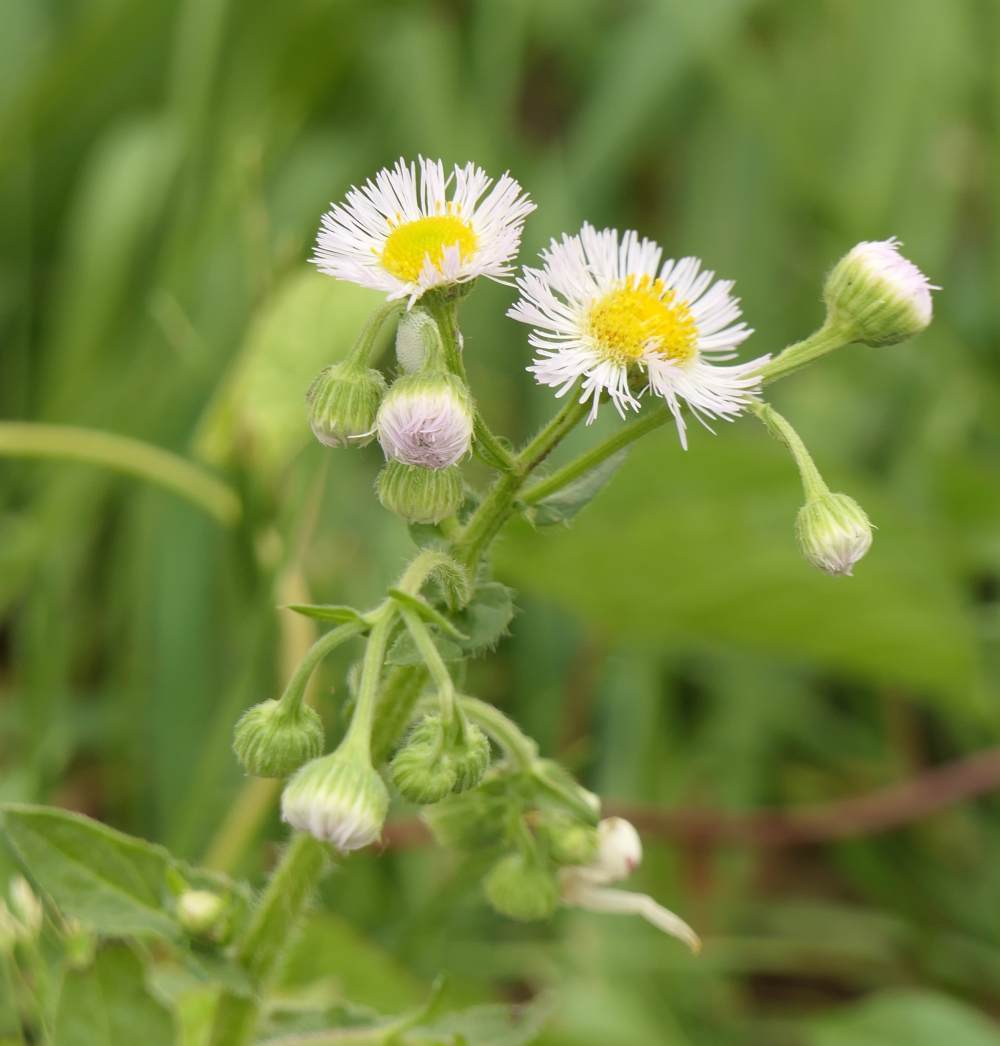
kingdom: Plantae
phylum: Tracheophyta
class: Magnoliopsida
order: Asterales
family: Asteraceae
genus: Erigeron
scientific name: Erigeron philadelphicus
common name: Robin's-plantain
